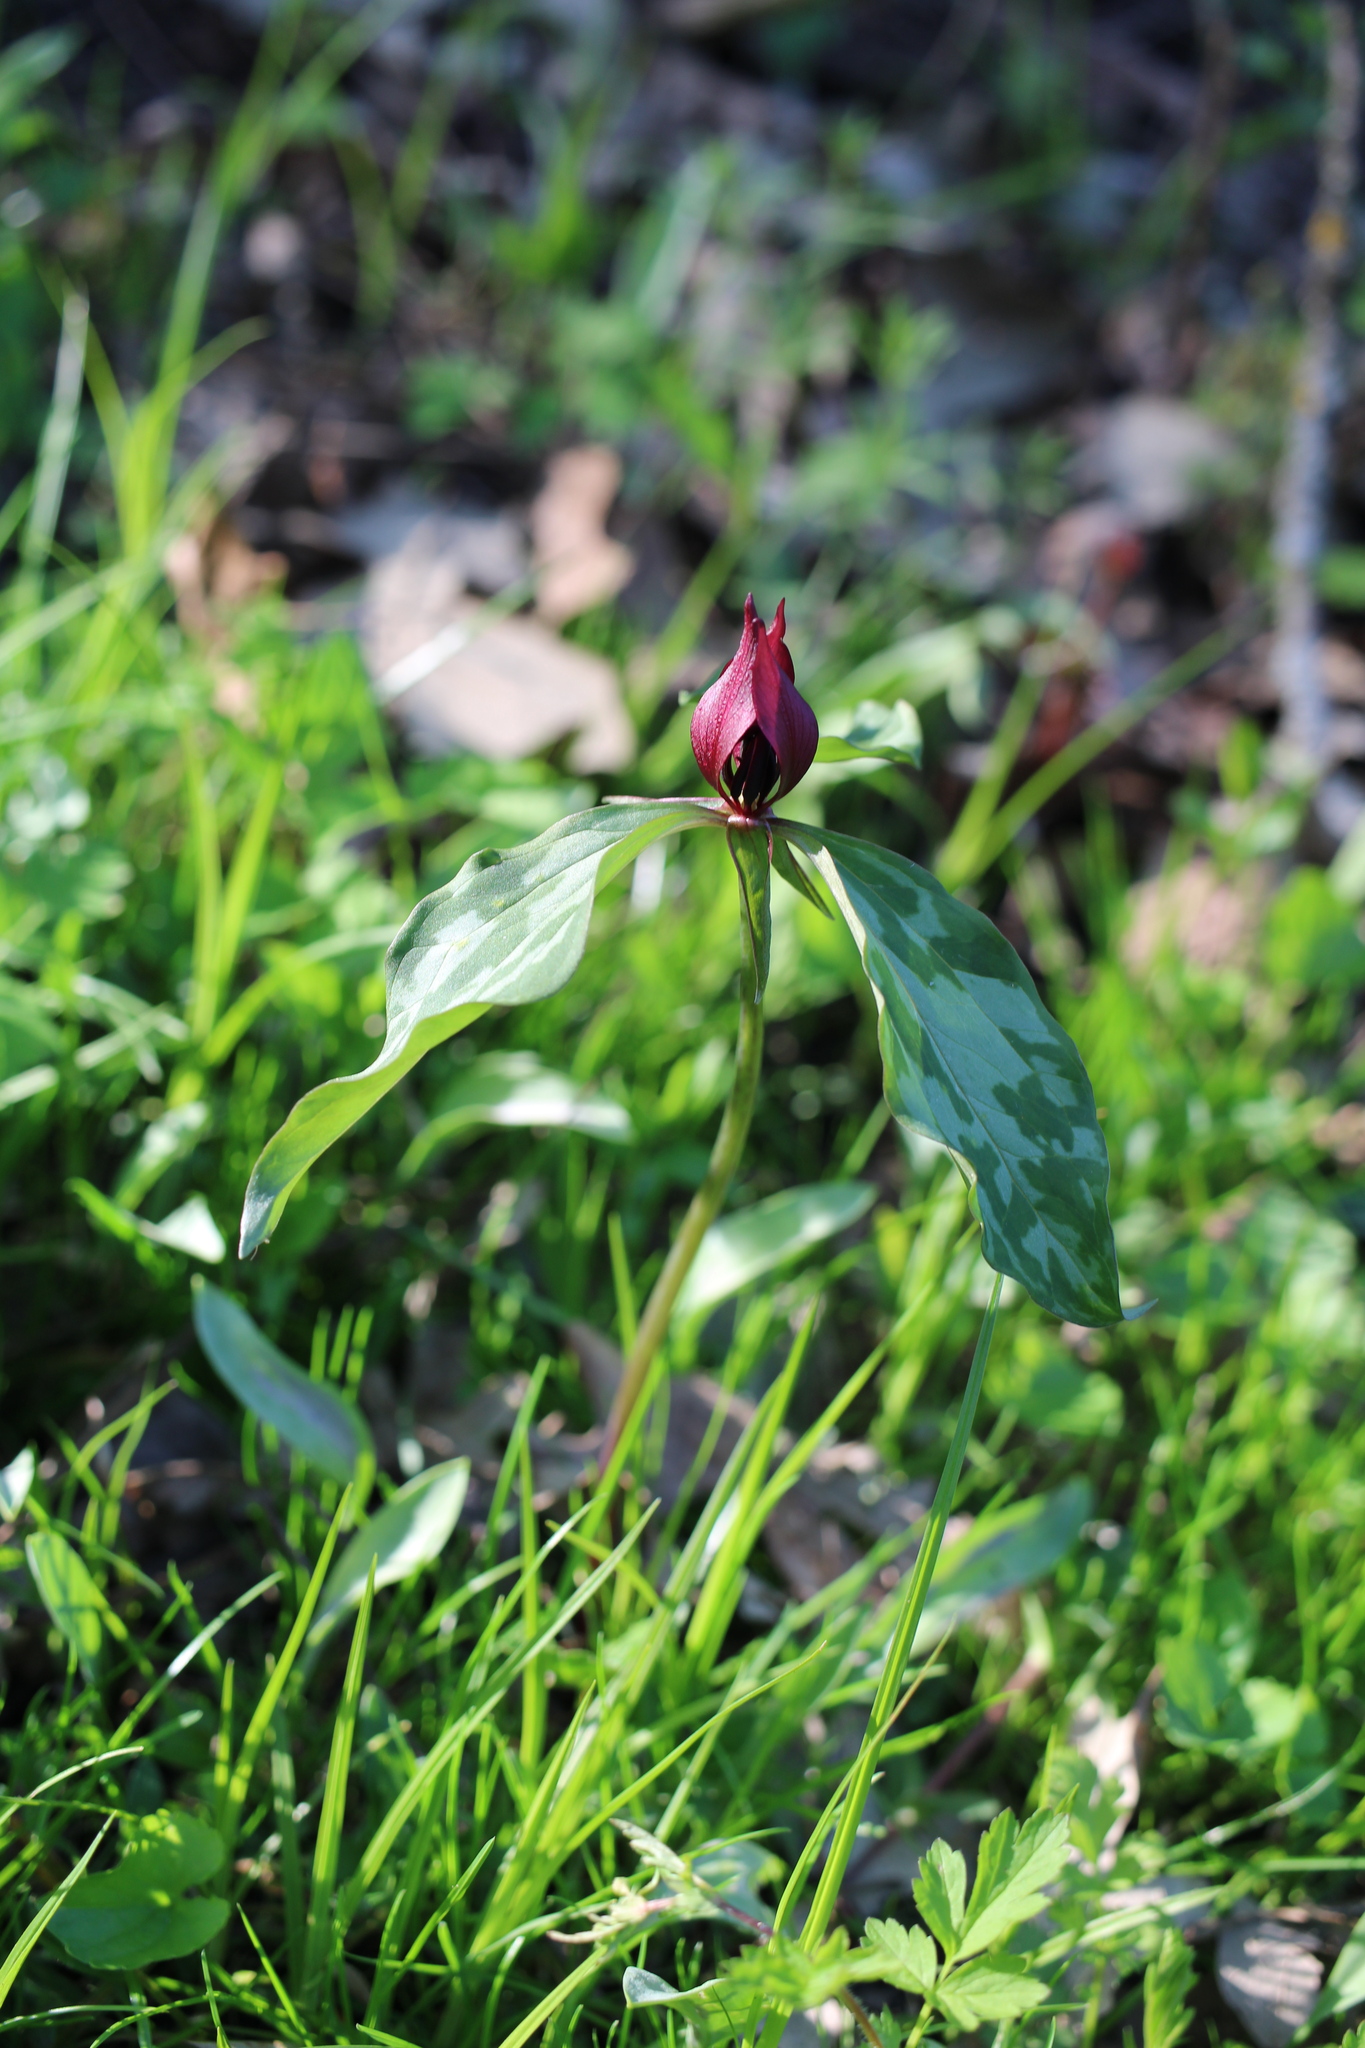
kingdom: Plantae
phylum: Tracheophyta
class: Liliopsida
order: Liliales
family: Melanthiaceae
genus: Trillium
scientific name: Trillium recurvatum
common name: Bloody butcher
